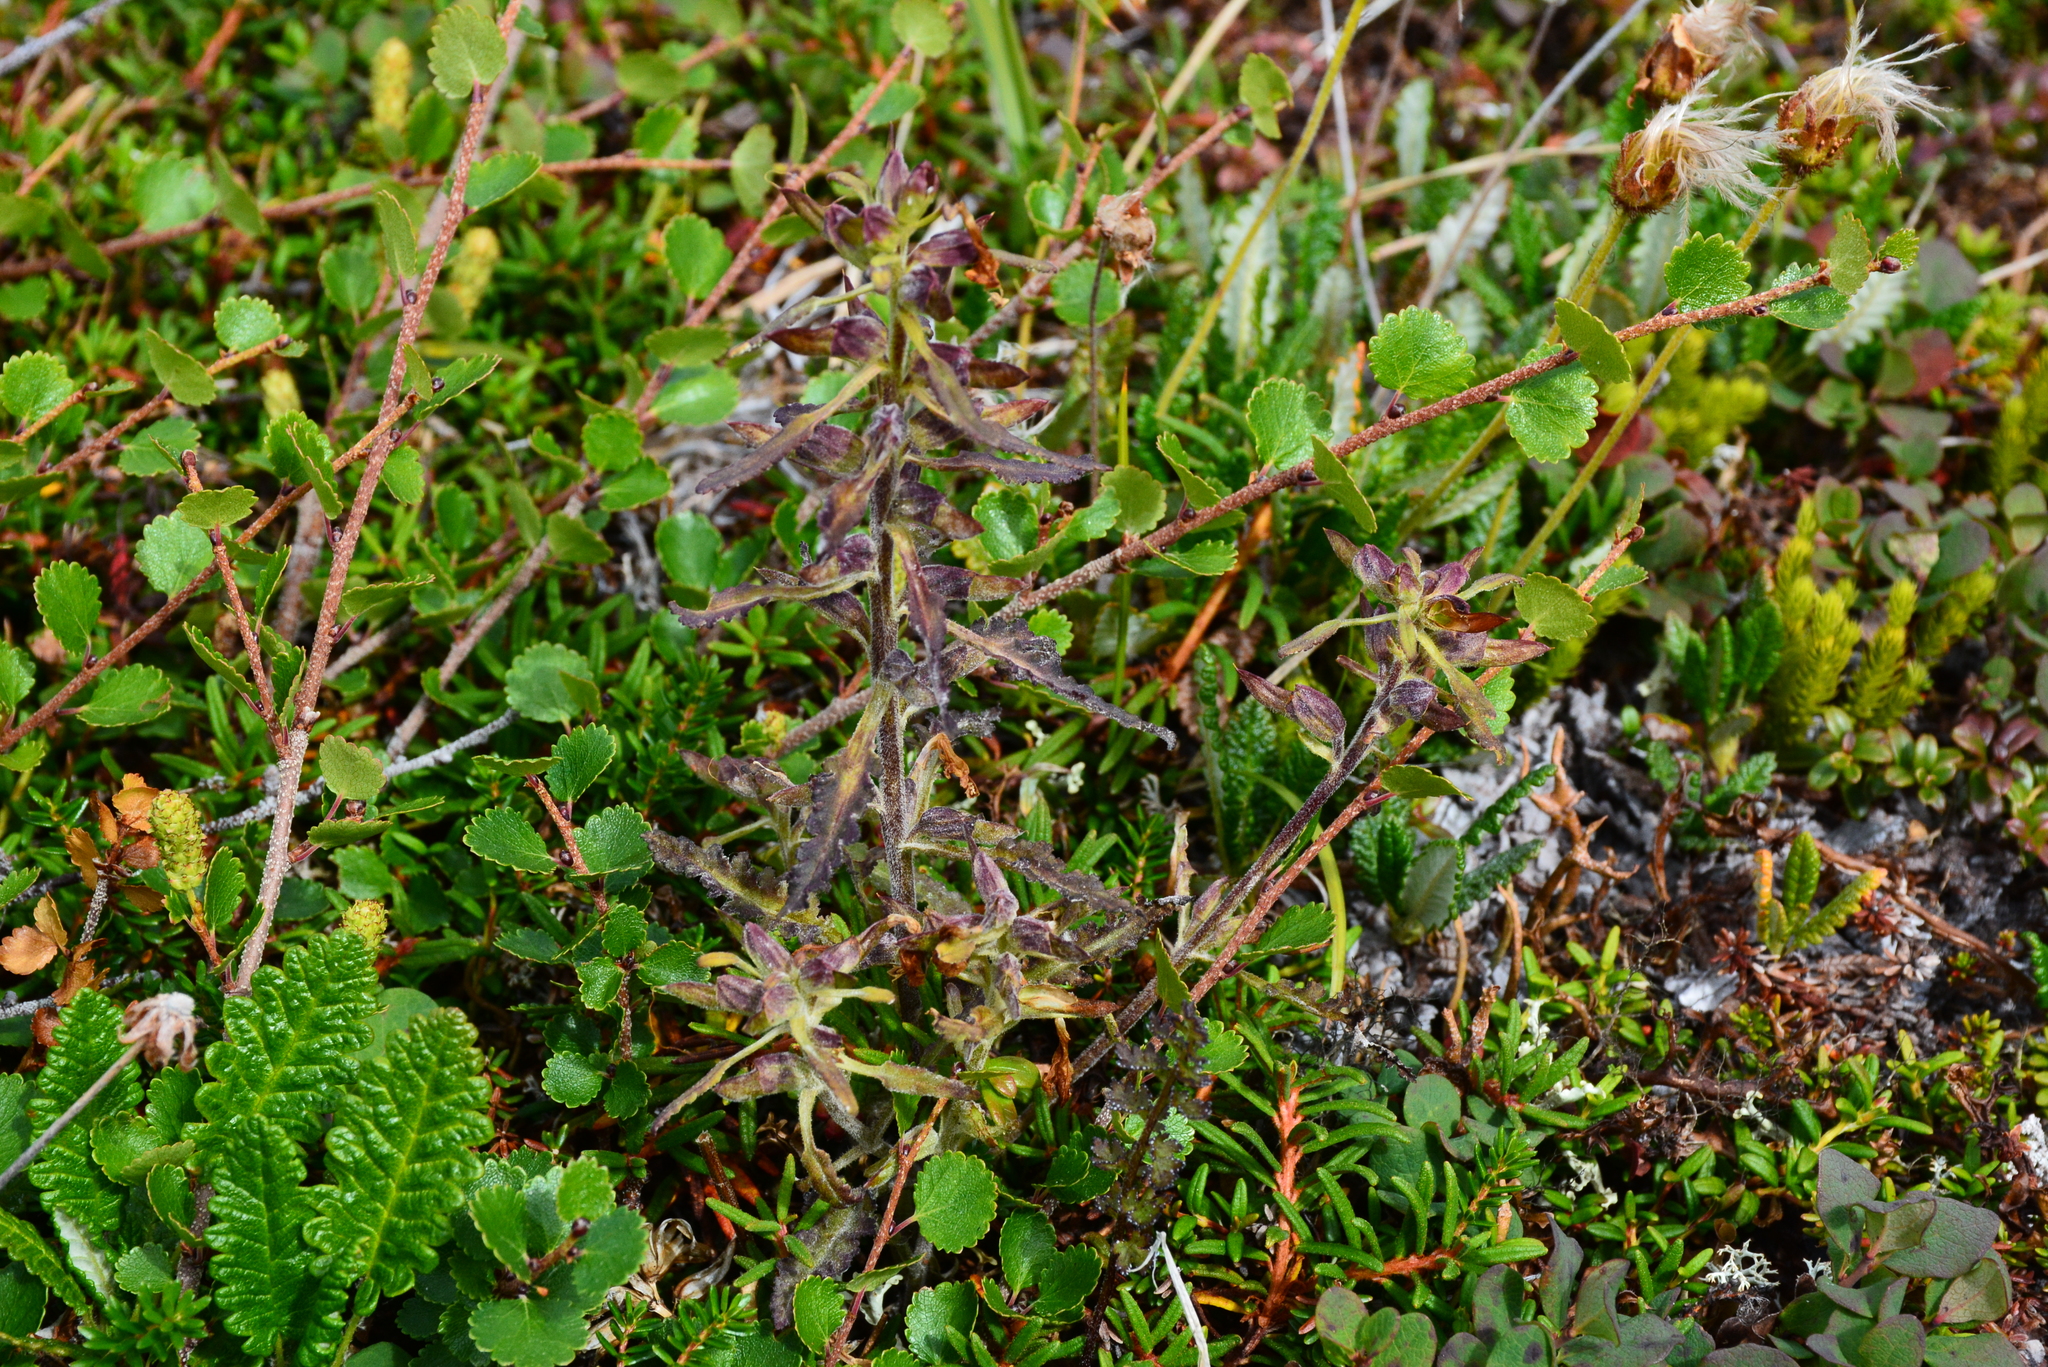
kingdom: Plantae
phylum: Tracheophyta
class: Magnoliopsida
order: Lamiales
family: Orobanchaceae
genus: Pedicularis
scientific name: Pedicularis labradorica
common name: Labrador lousewort
